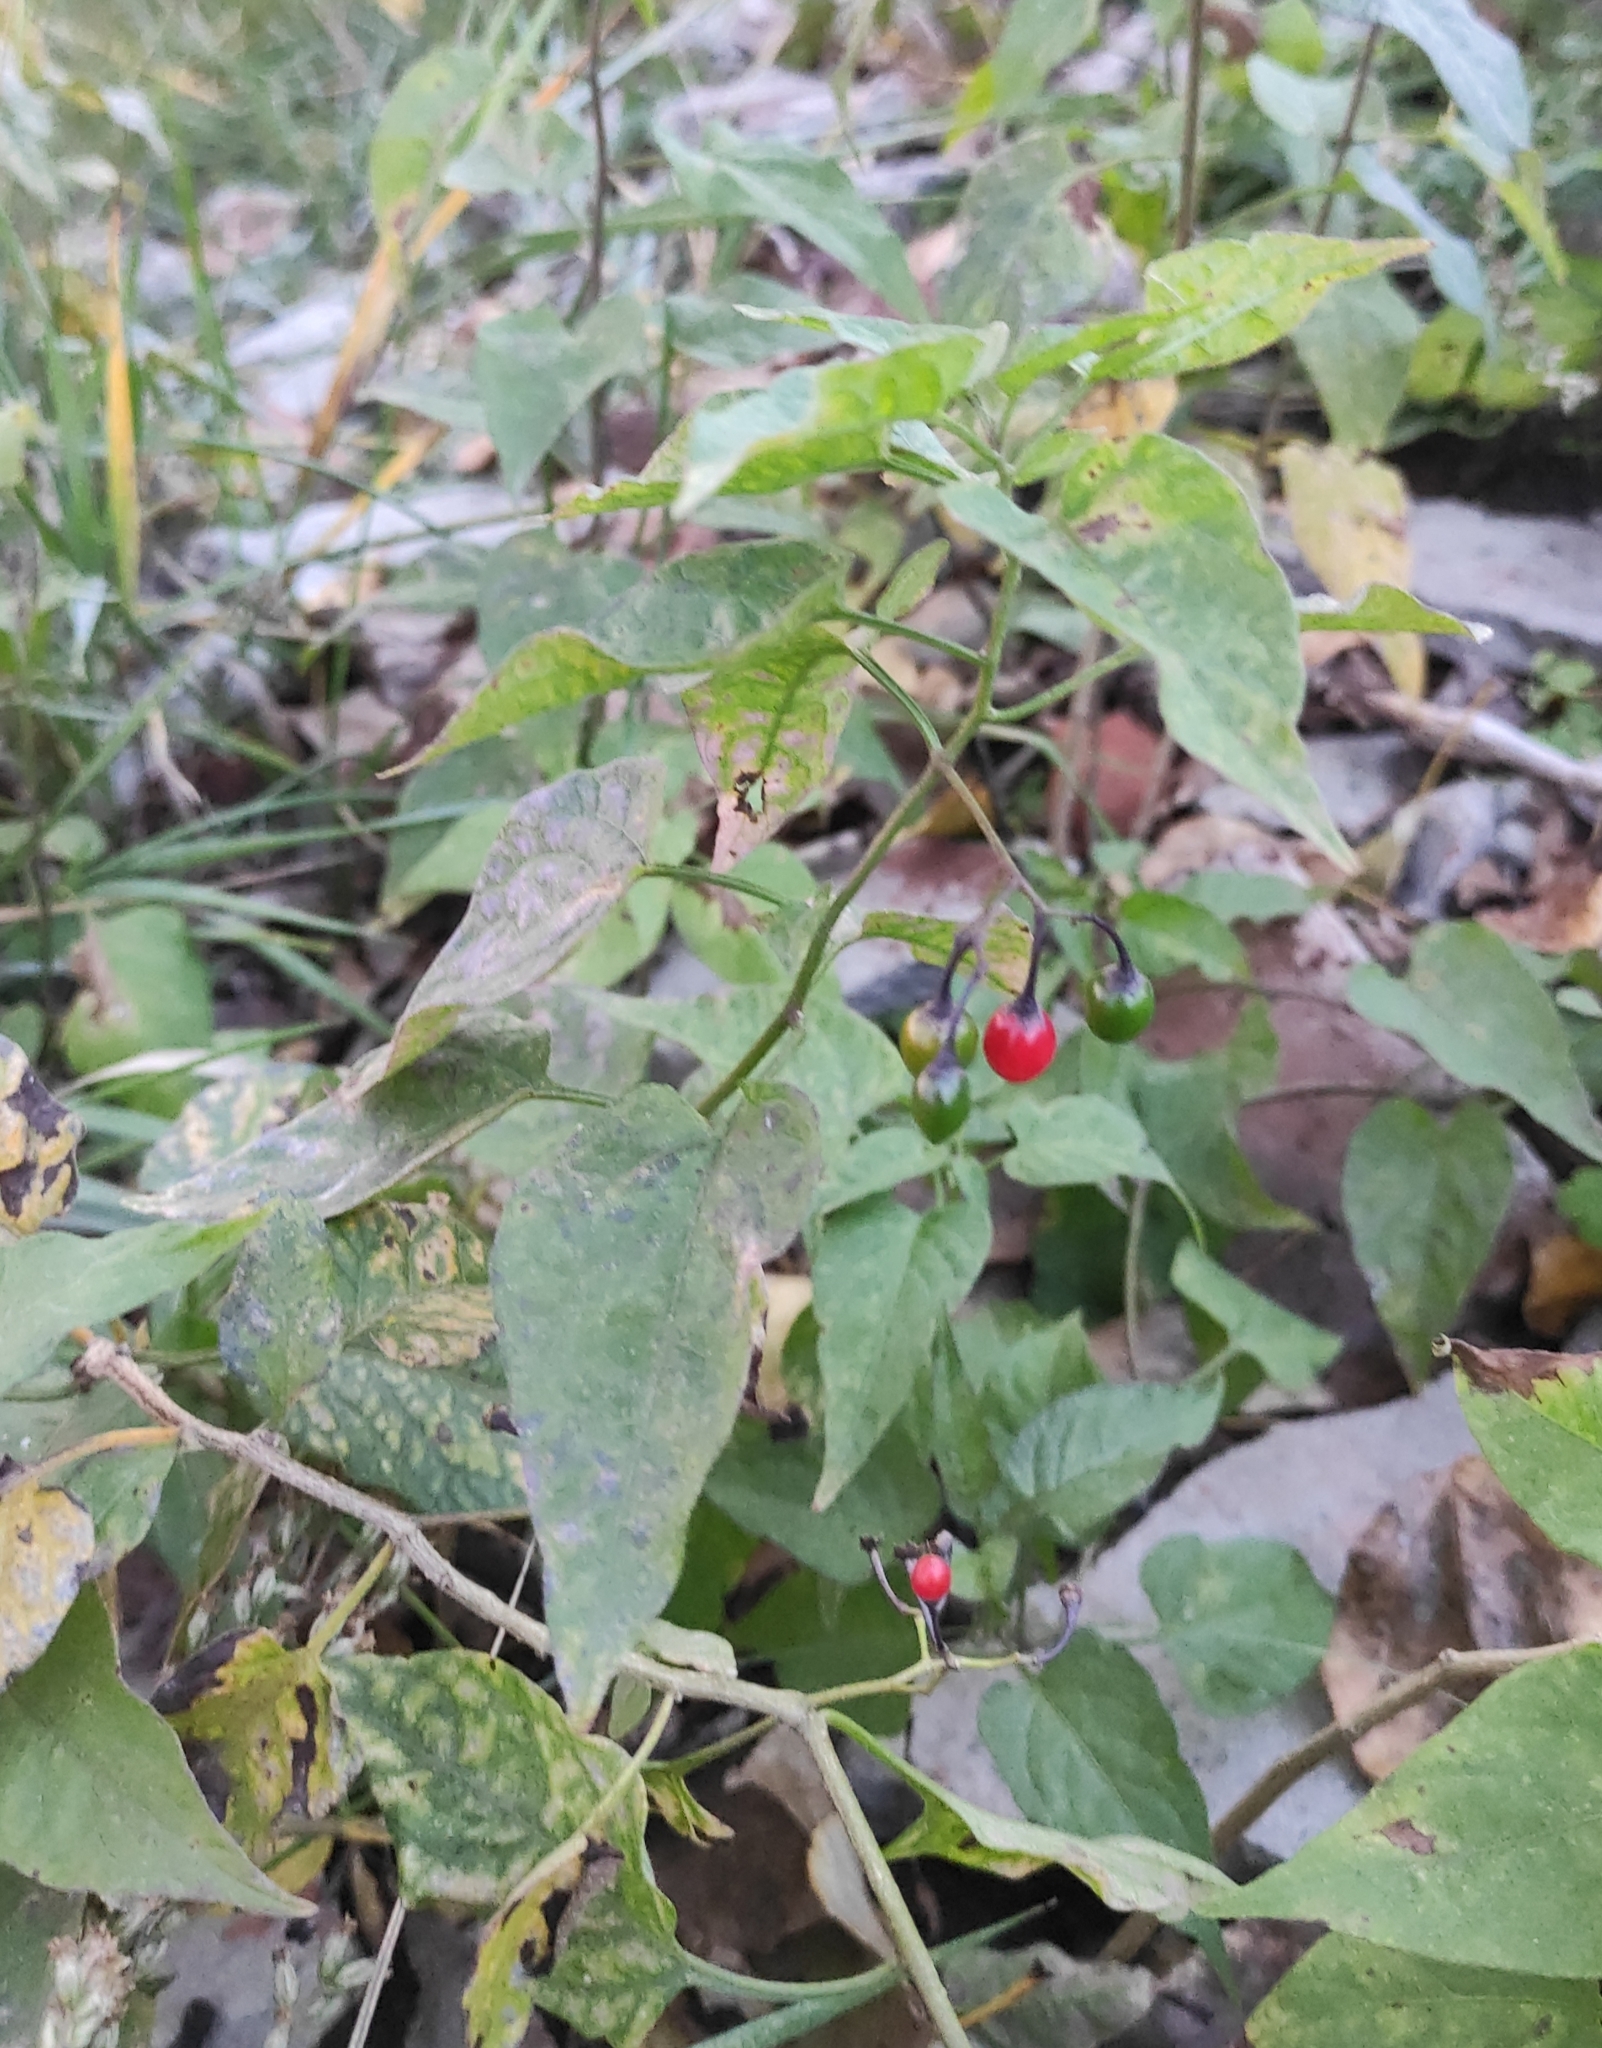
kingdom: Plantae
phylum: Tracheophyta
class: Magnoliopsida
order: Solanales
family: Solanaceae
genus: Solanum
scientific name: Solanum dulcamara
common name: Climbing nightshade
